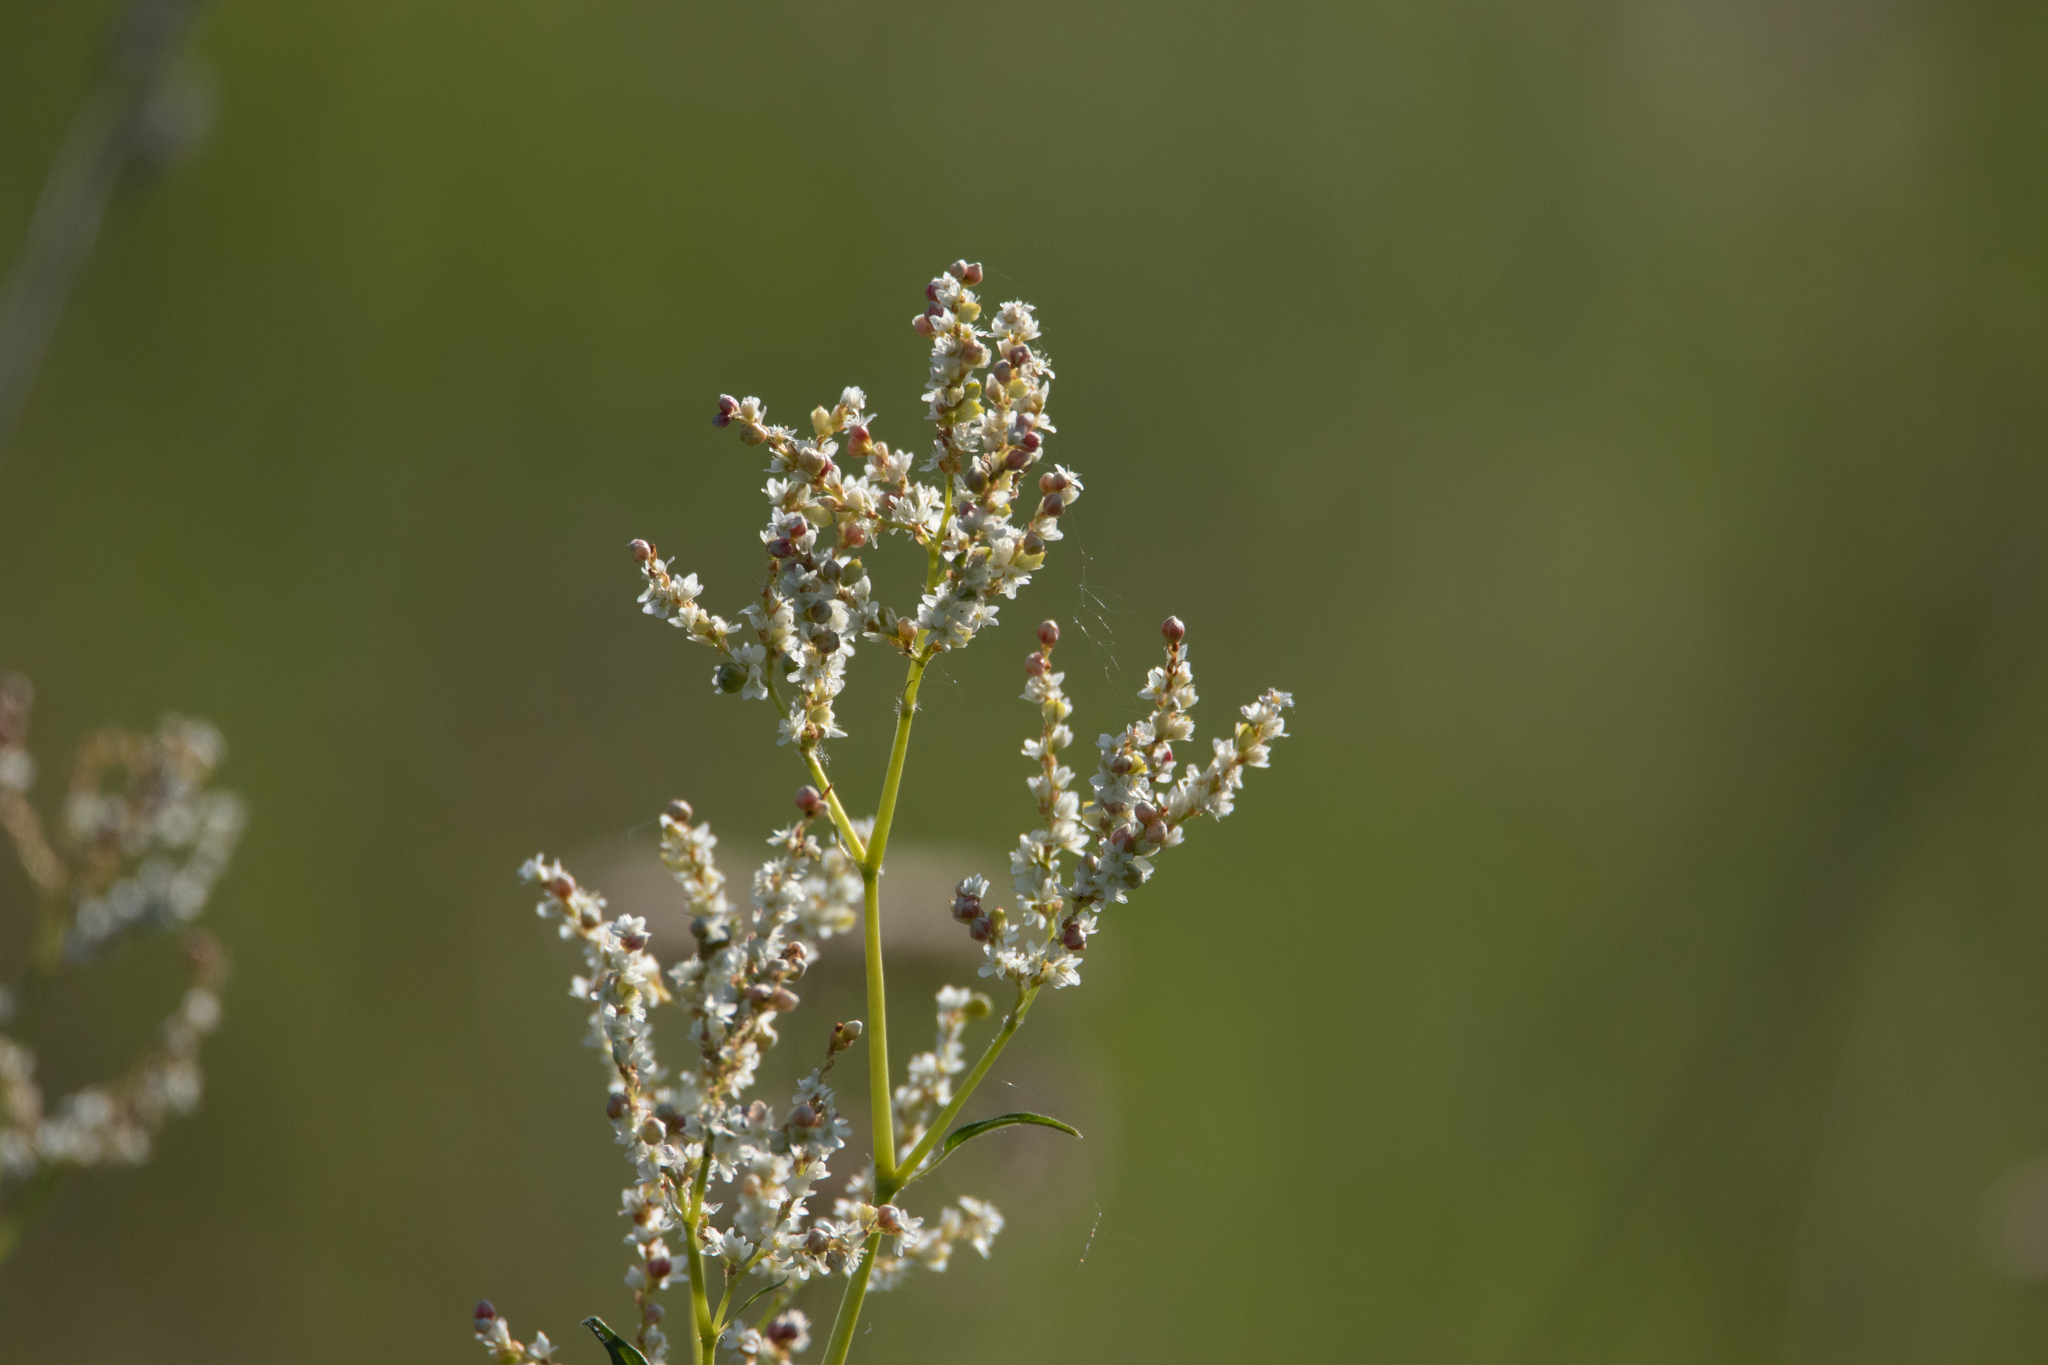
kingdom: Plantae
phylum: Tracheophyta
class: Magnoliopsida
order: Caryophyllales
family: Polygonaceae
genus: Koenigia
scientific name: Koenigia alpina
